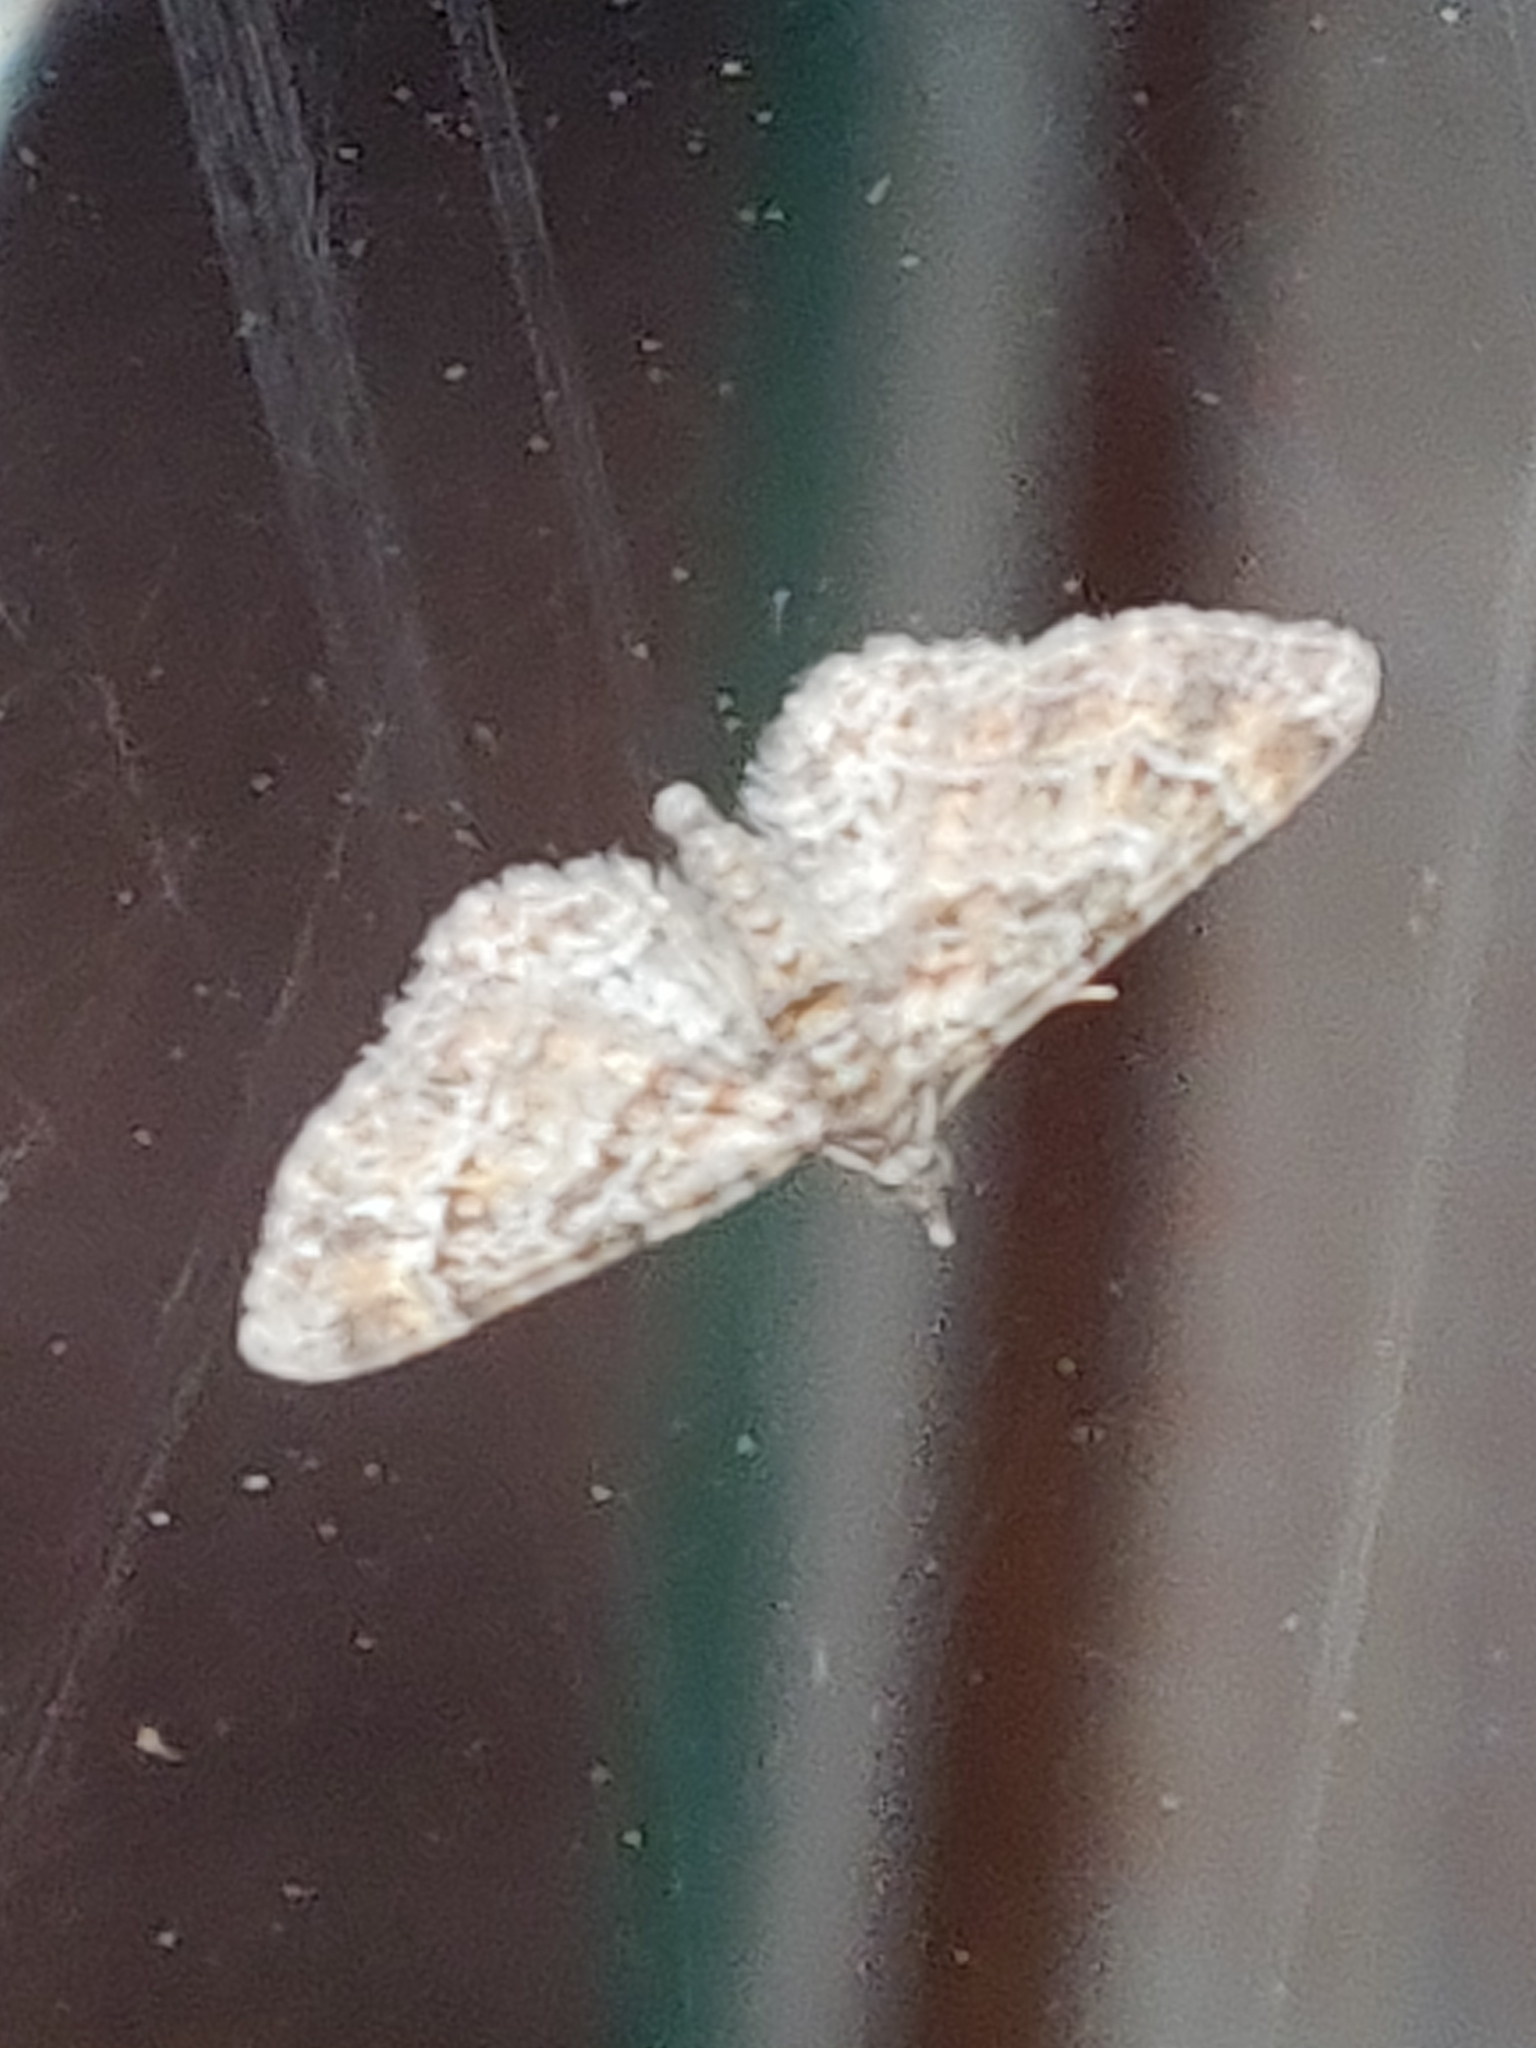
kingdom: Animalia
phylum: Arthropoda
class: Insecta
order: Lepidoptera
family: Geometridae
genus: Gymnoscelis
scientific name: Gymnoscelis rufifasciata
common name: Double-striped pug
